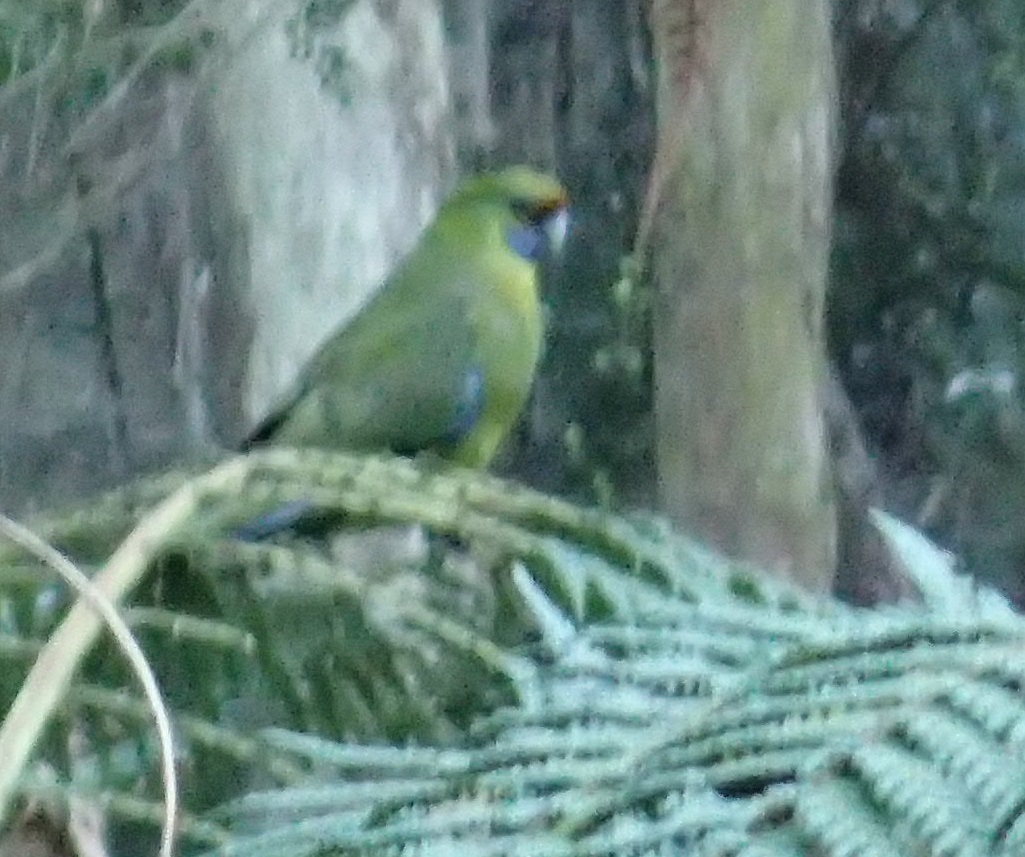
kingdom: Animalia
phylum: Chordata
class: Aves
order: Psittaciformes
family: Psittacidae
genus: Platycercus
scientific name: Platycercus caledonicus
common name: Green rosella
